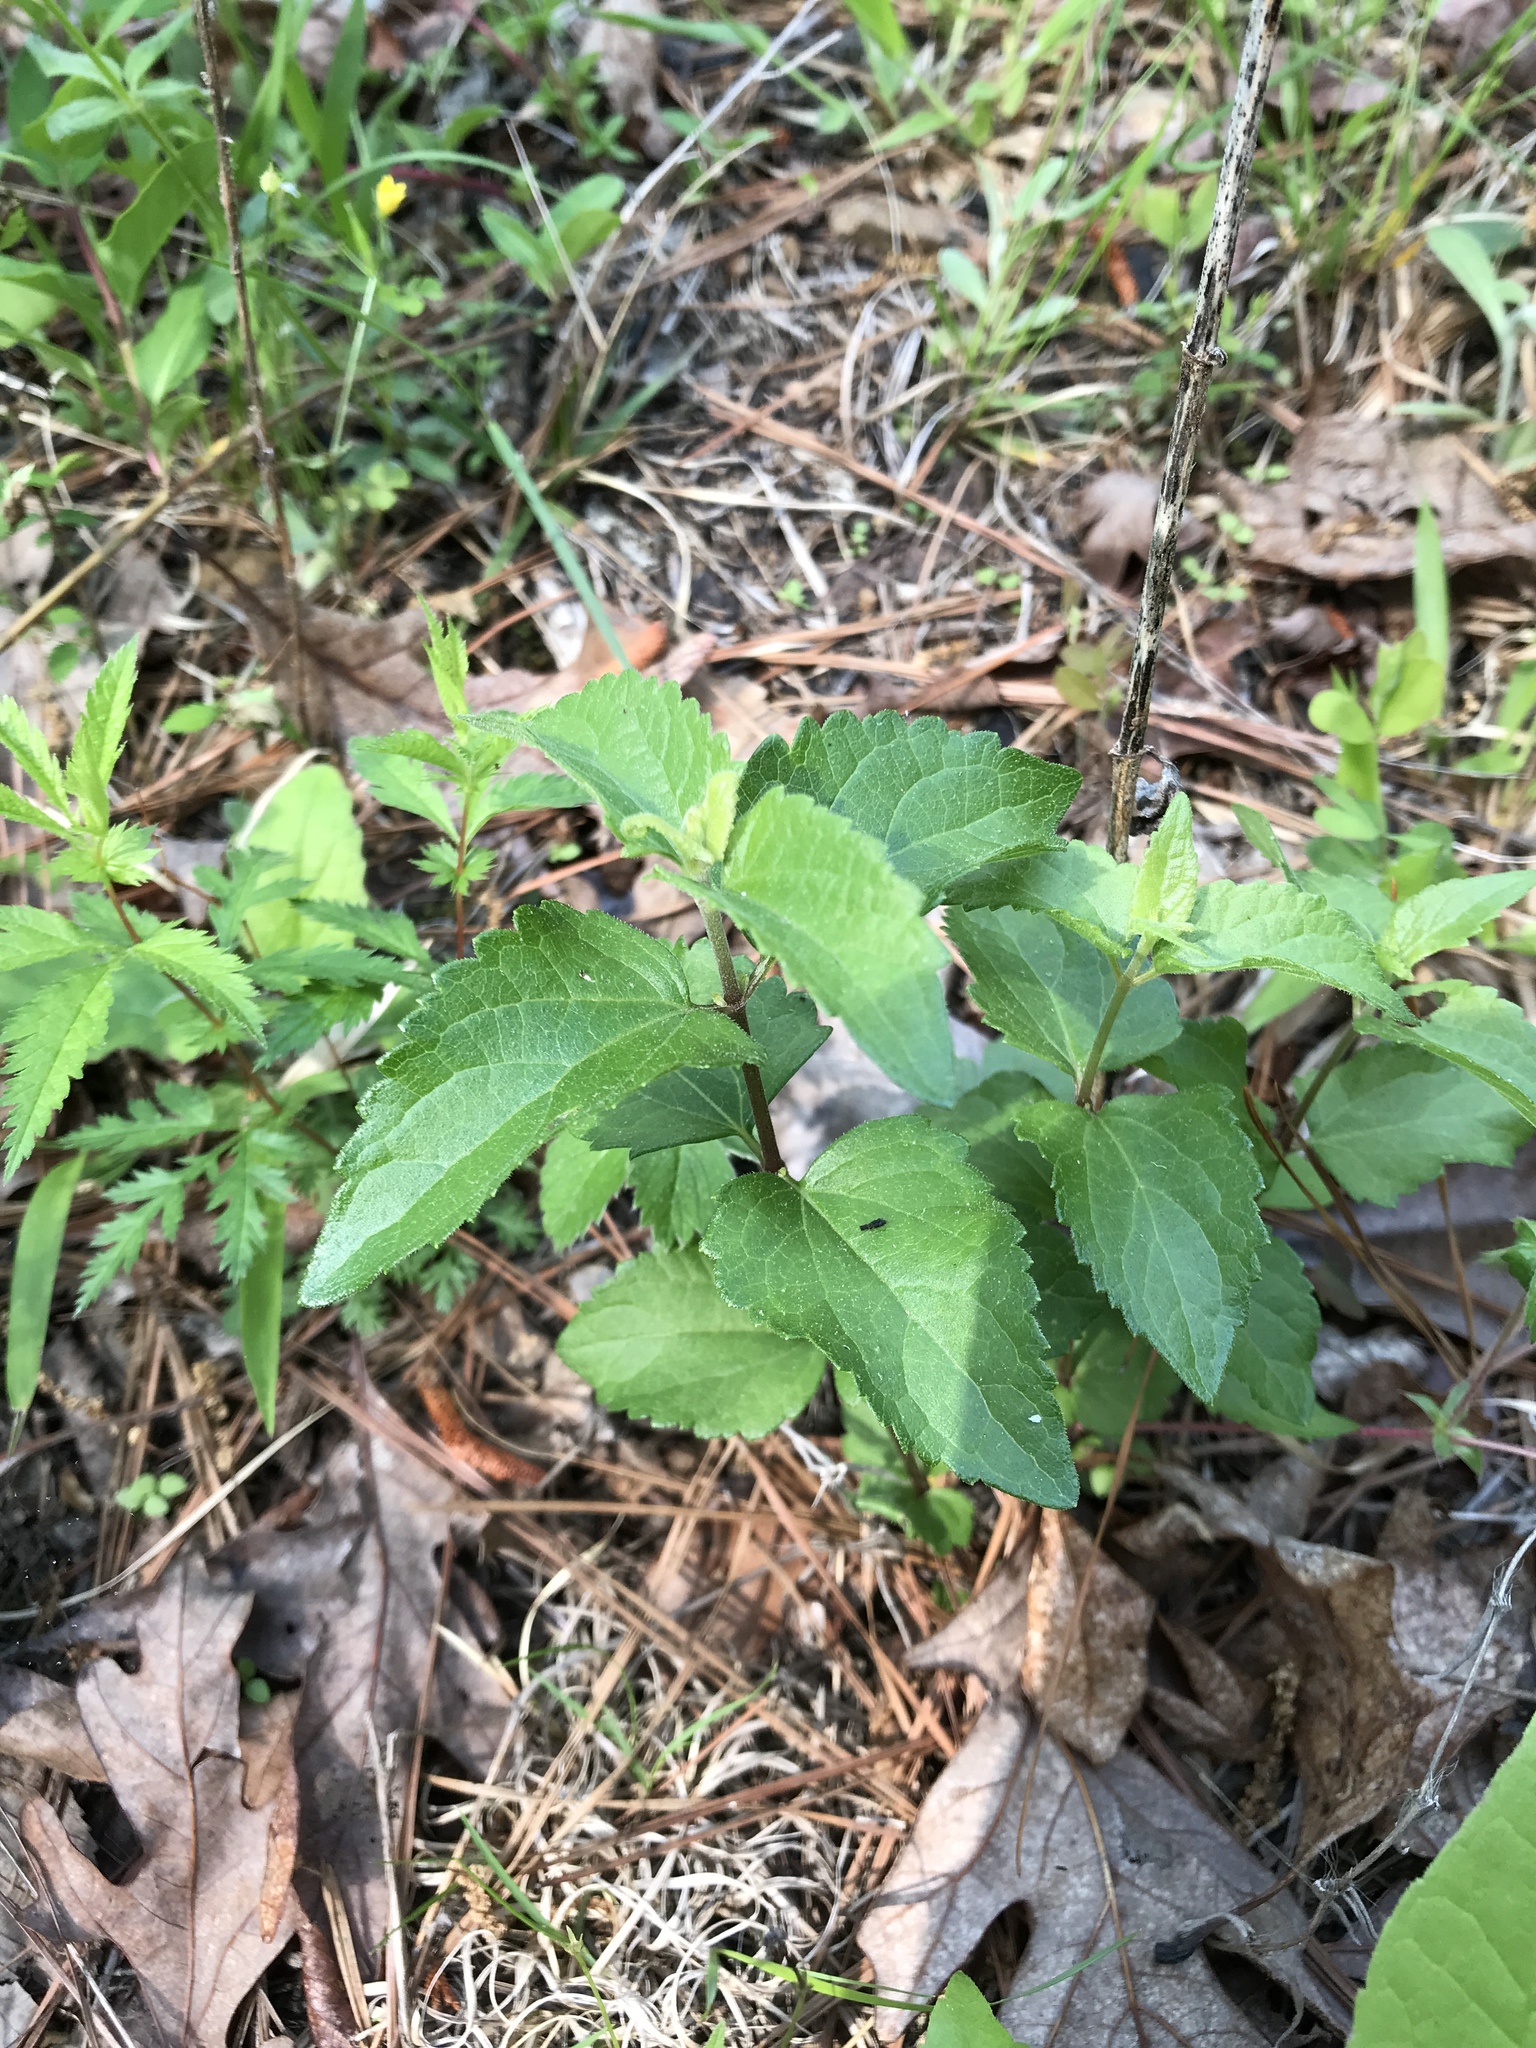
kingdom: Plantae
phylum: Tracheophyta
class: Magnoliopsida
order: Asterales
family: Asteraceae
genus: Ageratina
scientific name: Ageratina aromatica
